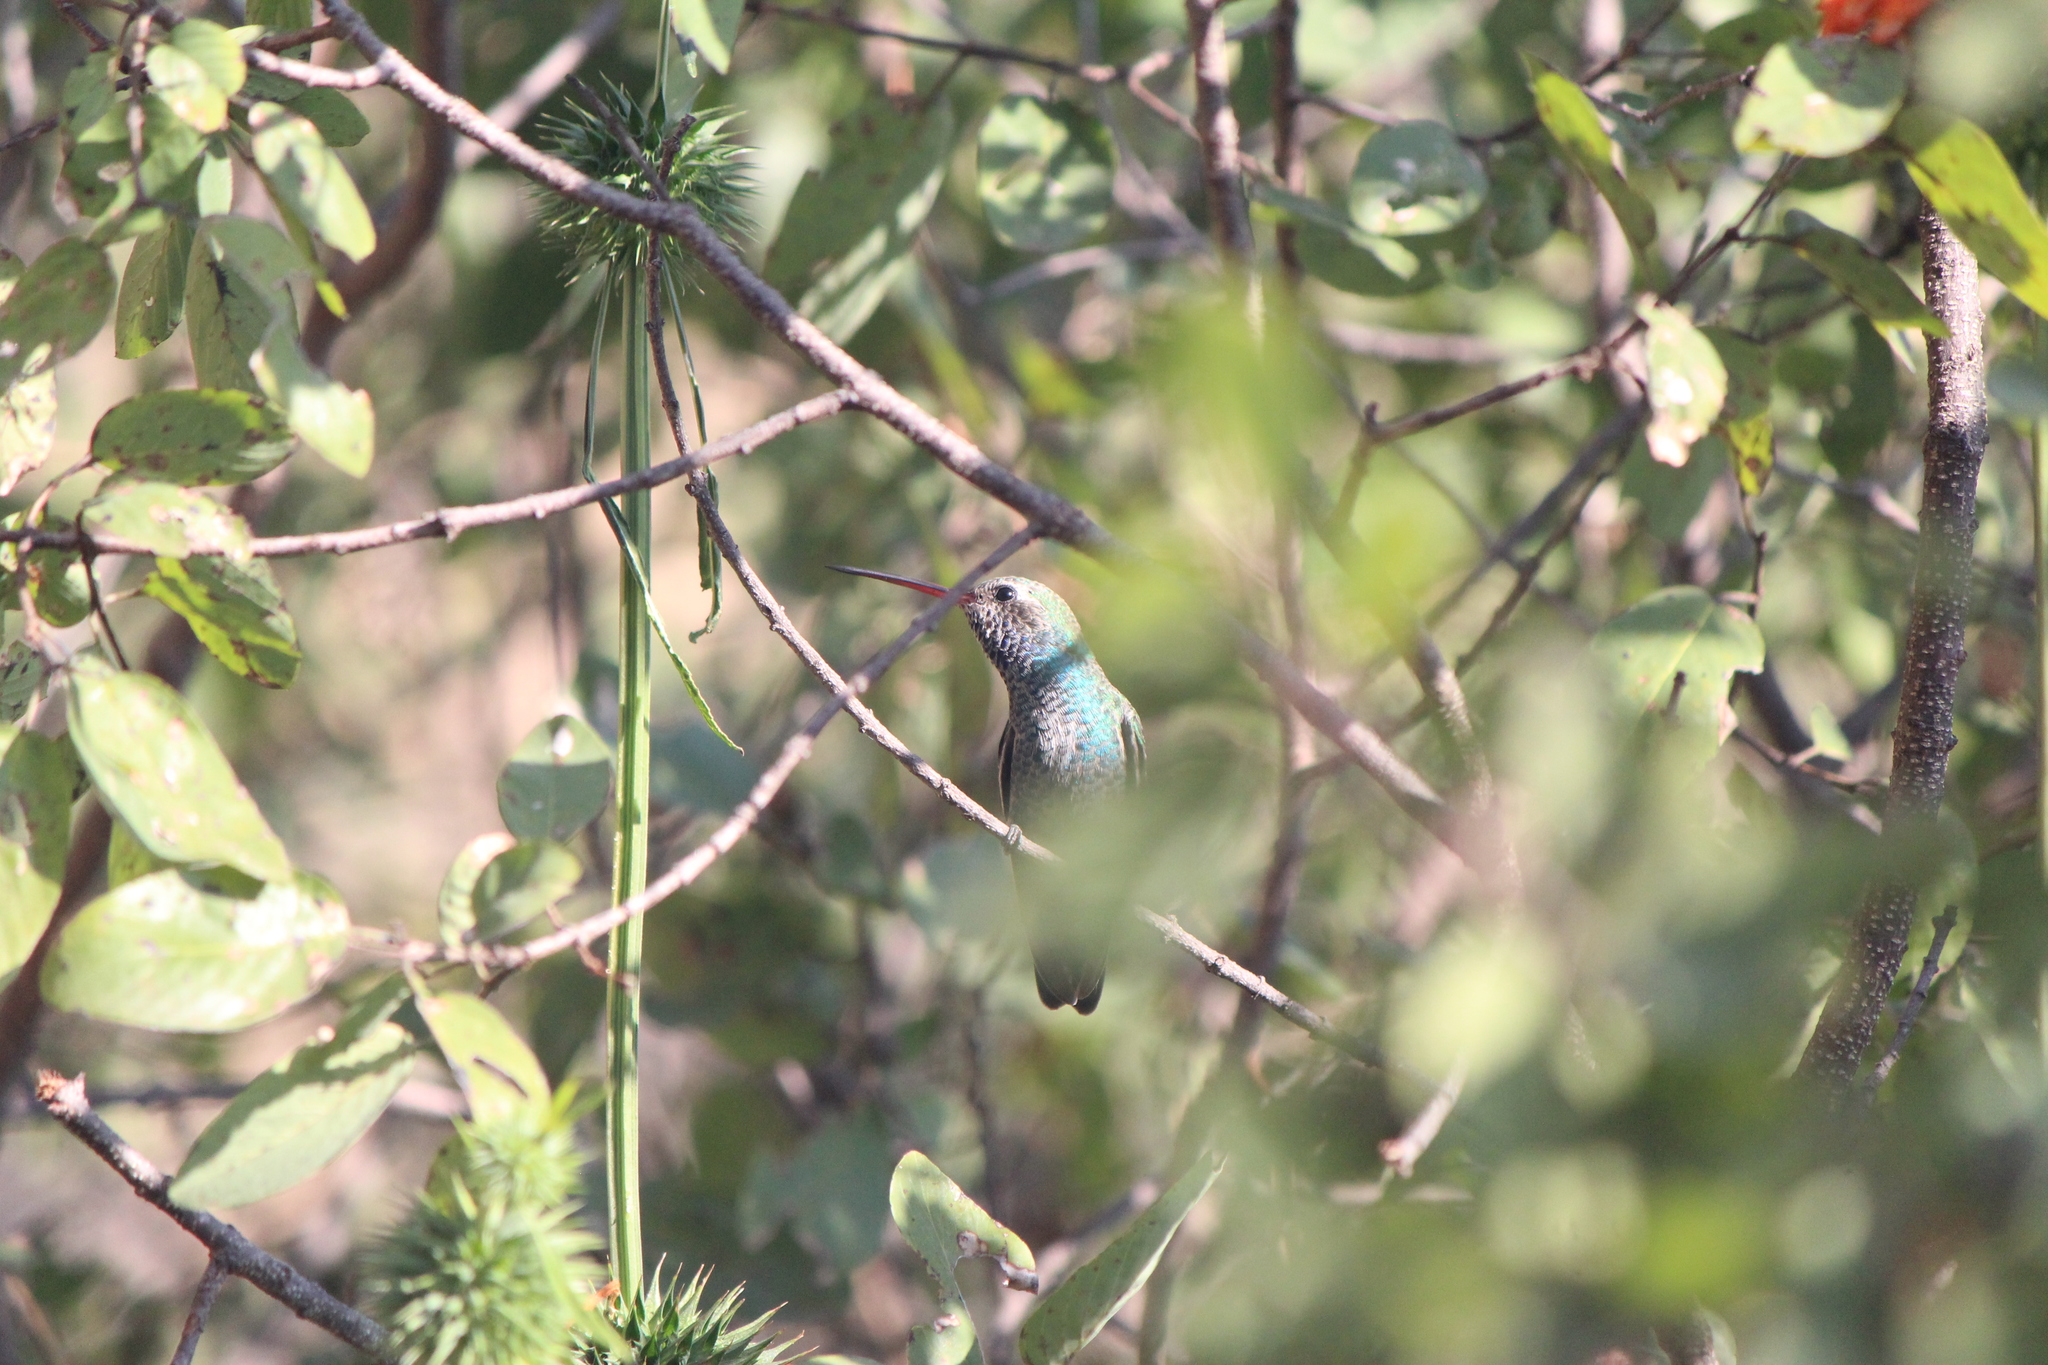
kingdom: Animalia
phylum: Chordata
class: Aves
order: Apodiformes
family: Trochilidae
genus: Cynanthus
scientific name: Cynanthus latirostris
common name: Broad-billed hummingbird
